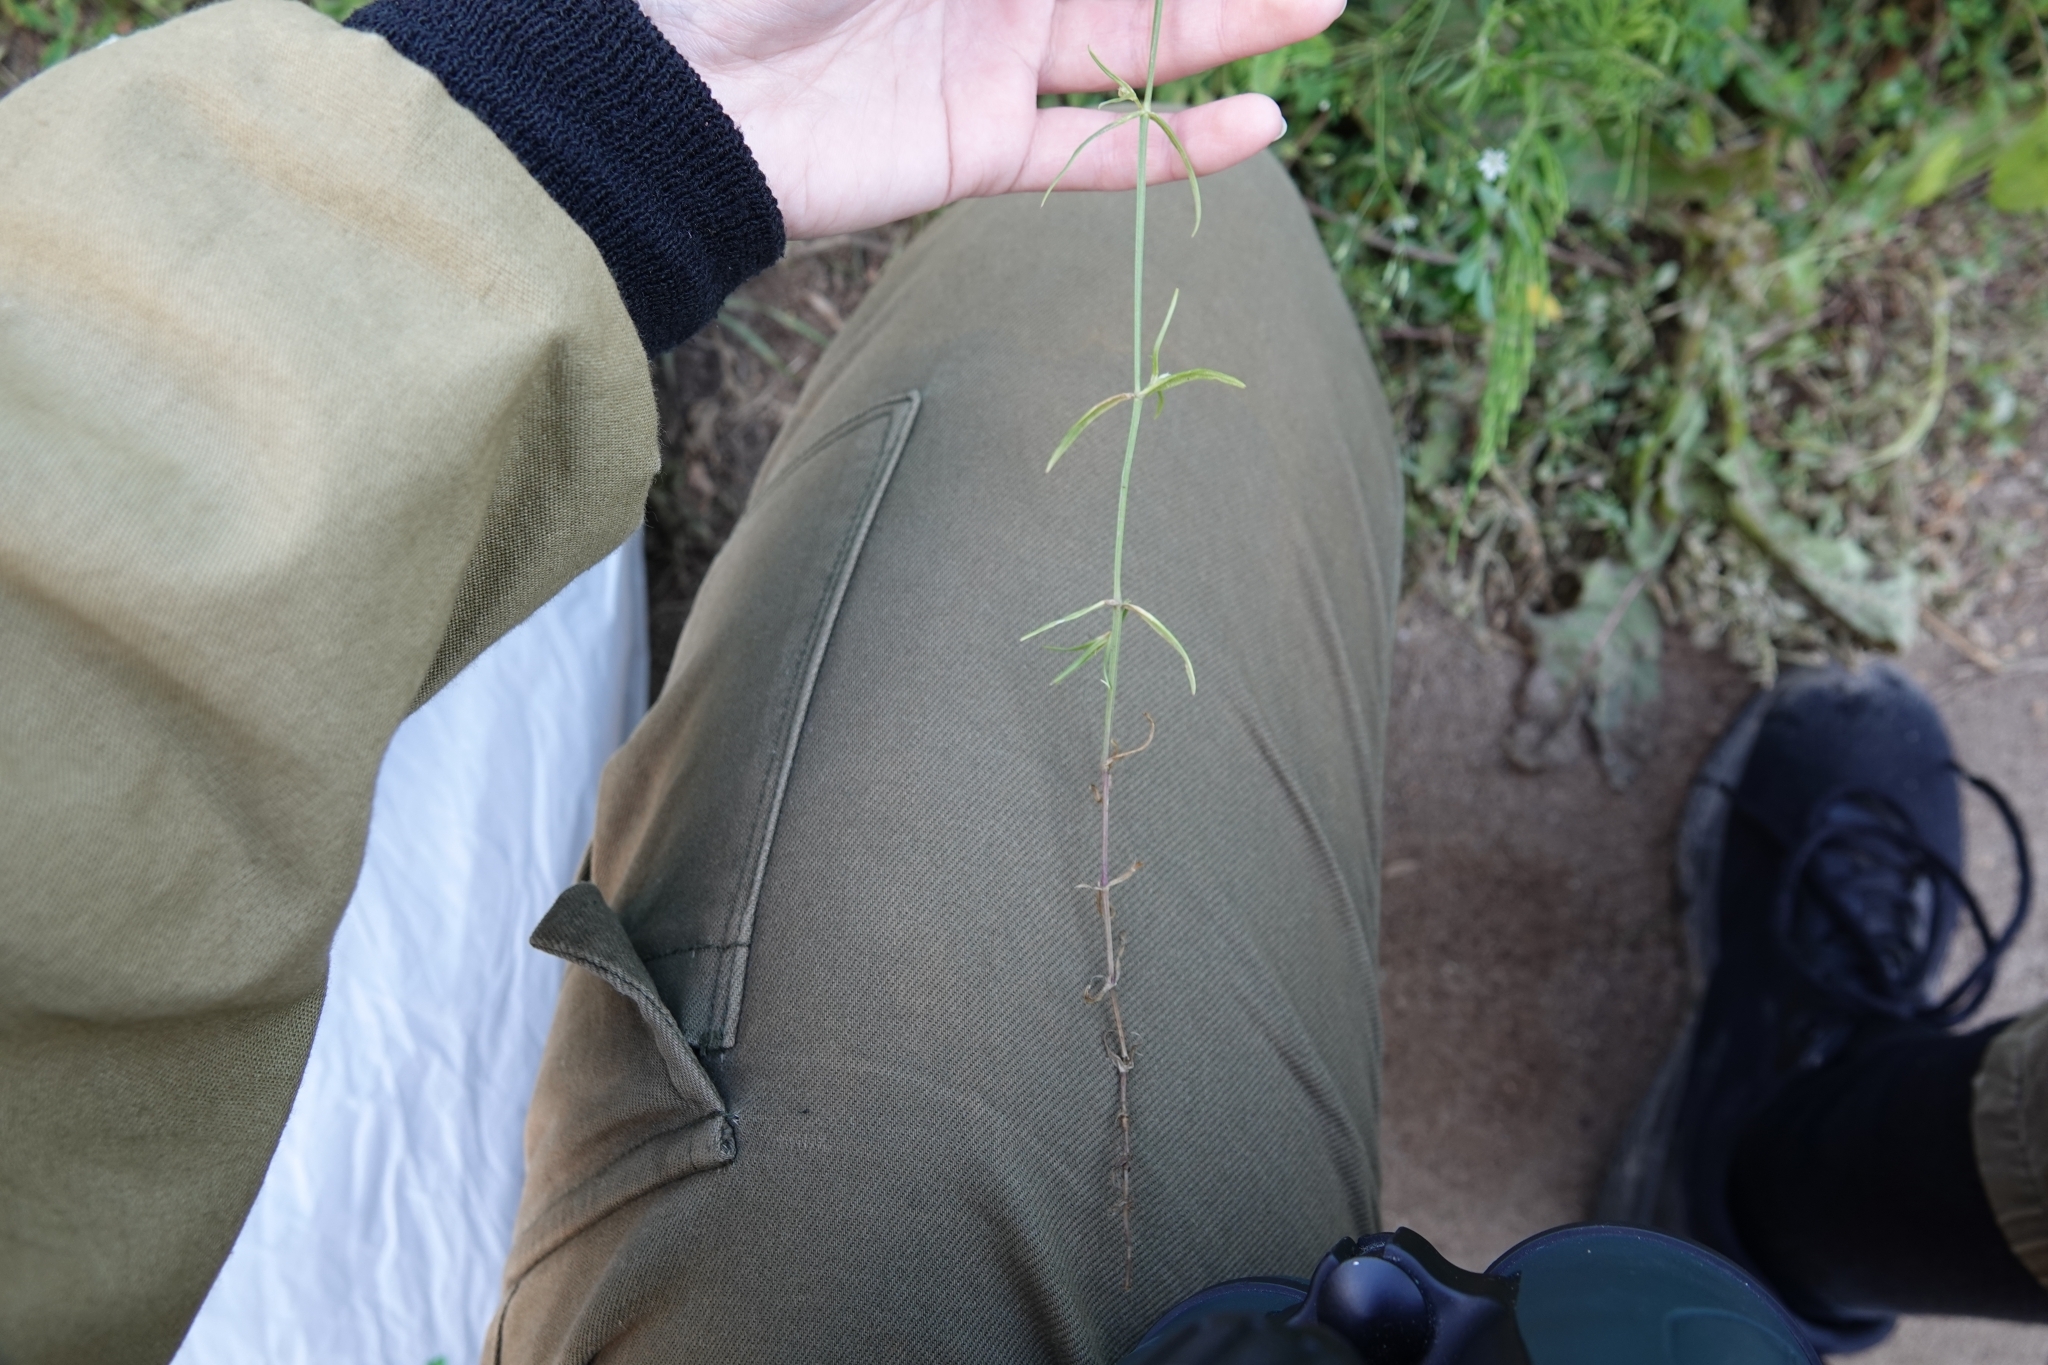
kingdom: Plantae
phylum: Tracheophyta
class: Magnoliopsida
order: Caryophyllales
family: Caryophyllaceae
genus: Stellaria
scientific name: Stellaria graminea
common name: Grass-like starwort
